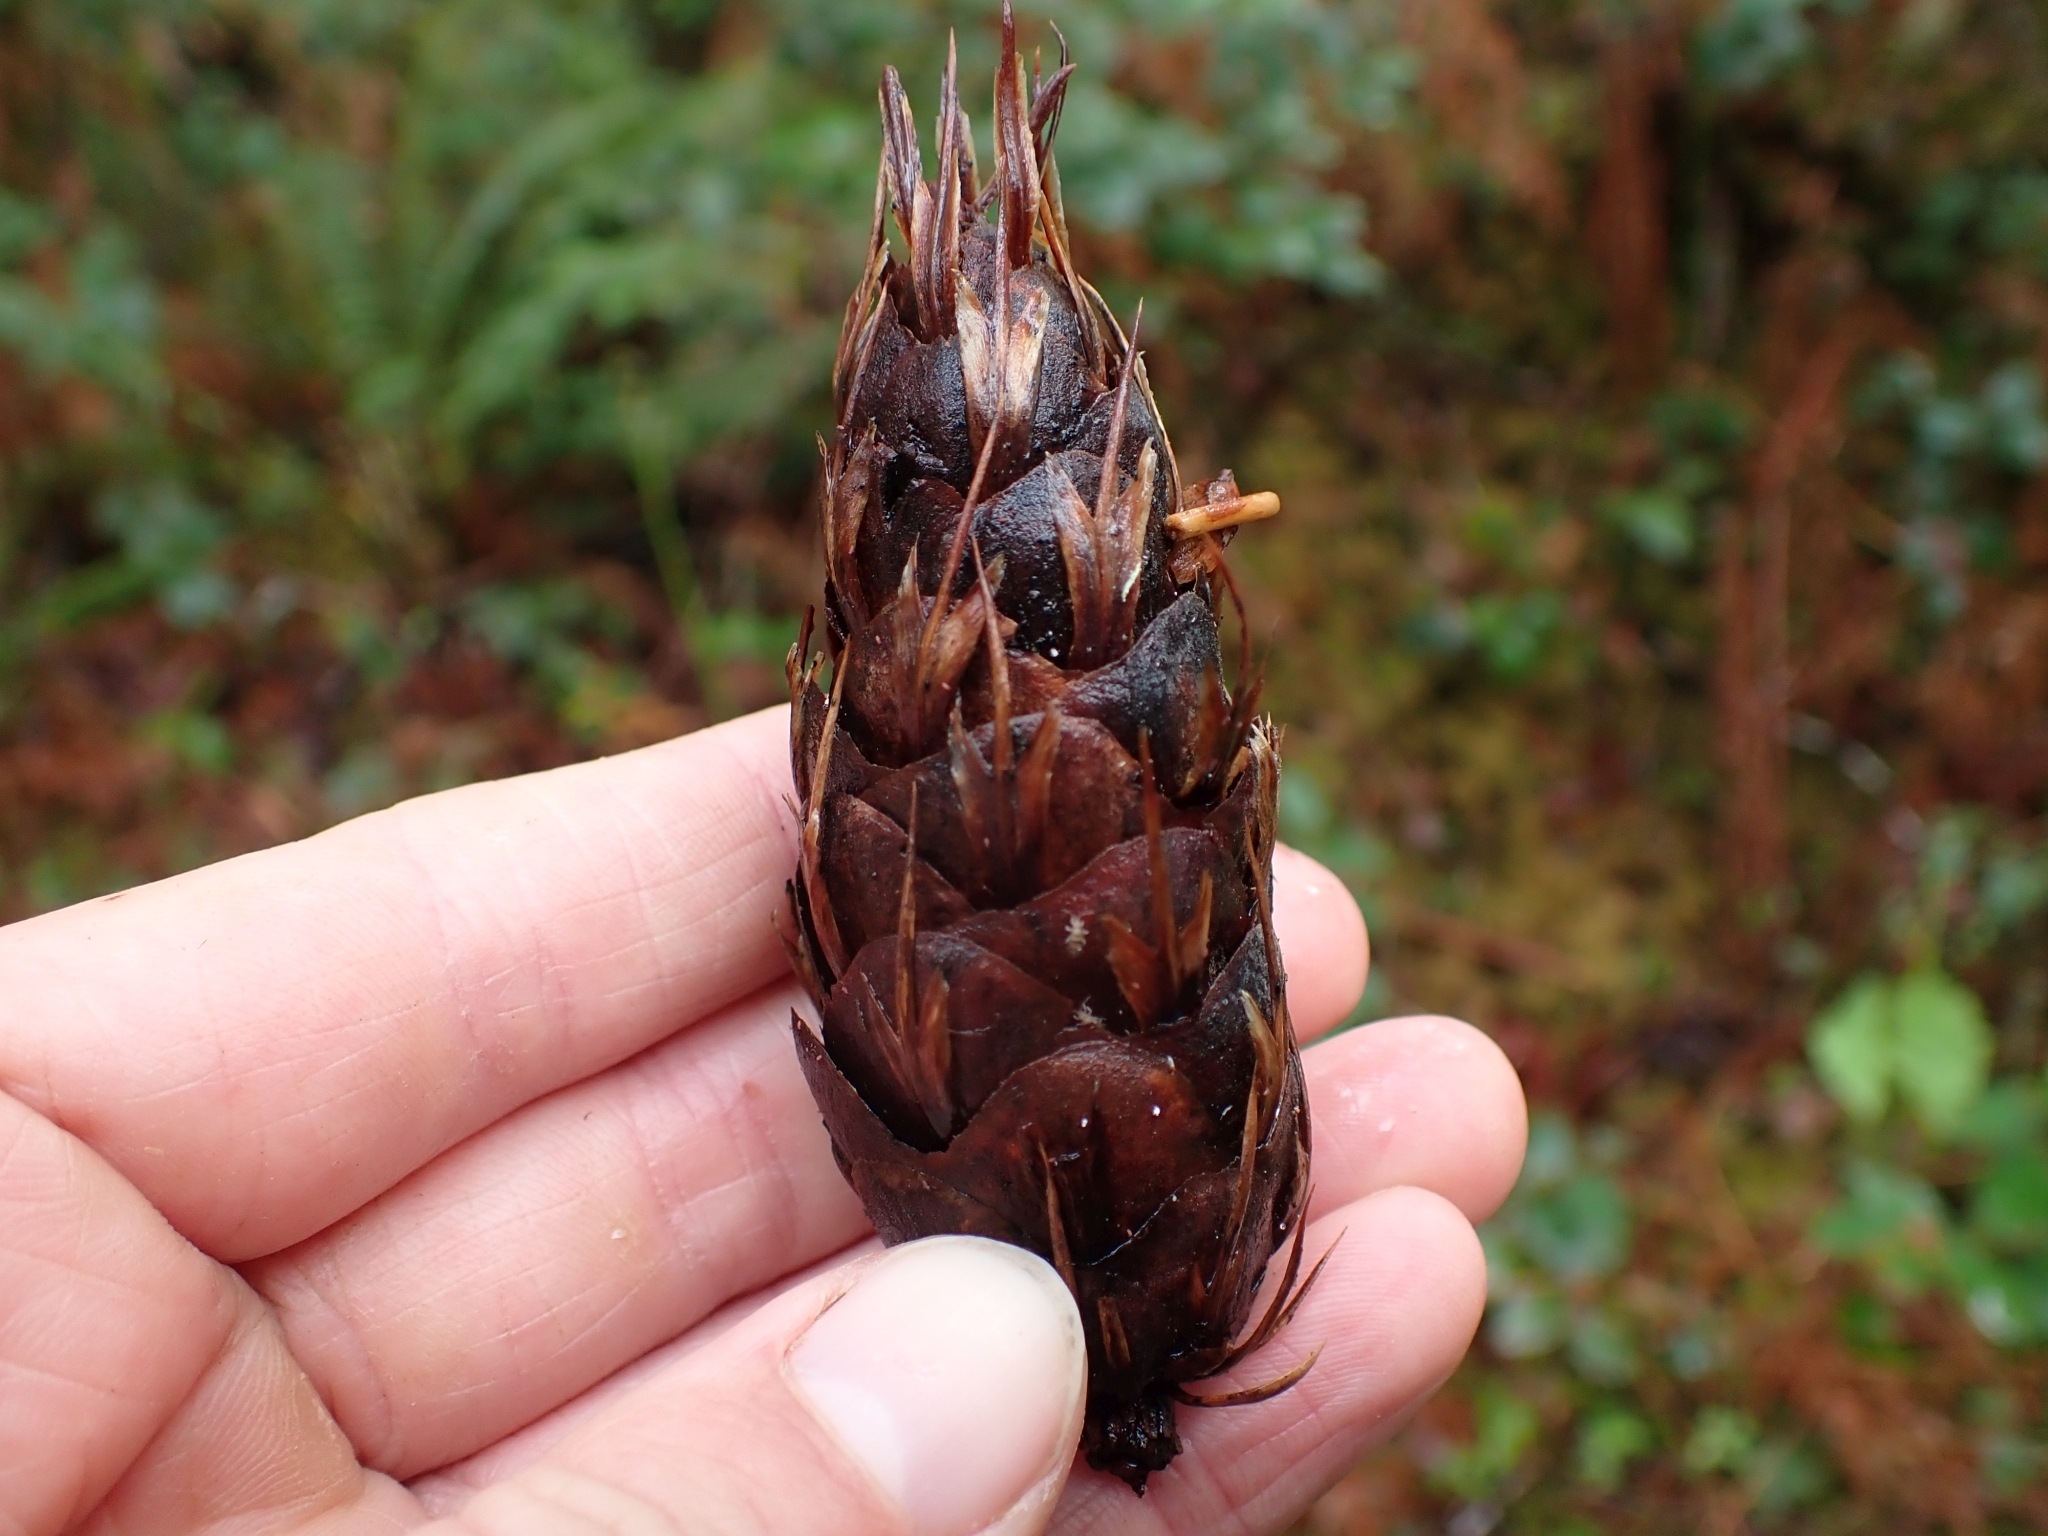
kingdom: Plantae
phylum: Tracheophyta
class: Pinopsida
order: Pinales
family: Pinaceae
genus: Pseudotsuga
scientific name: Pseudotsuga menziesii
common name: Douglas fir
